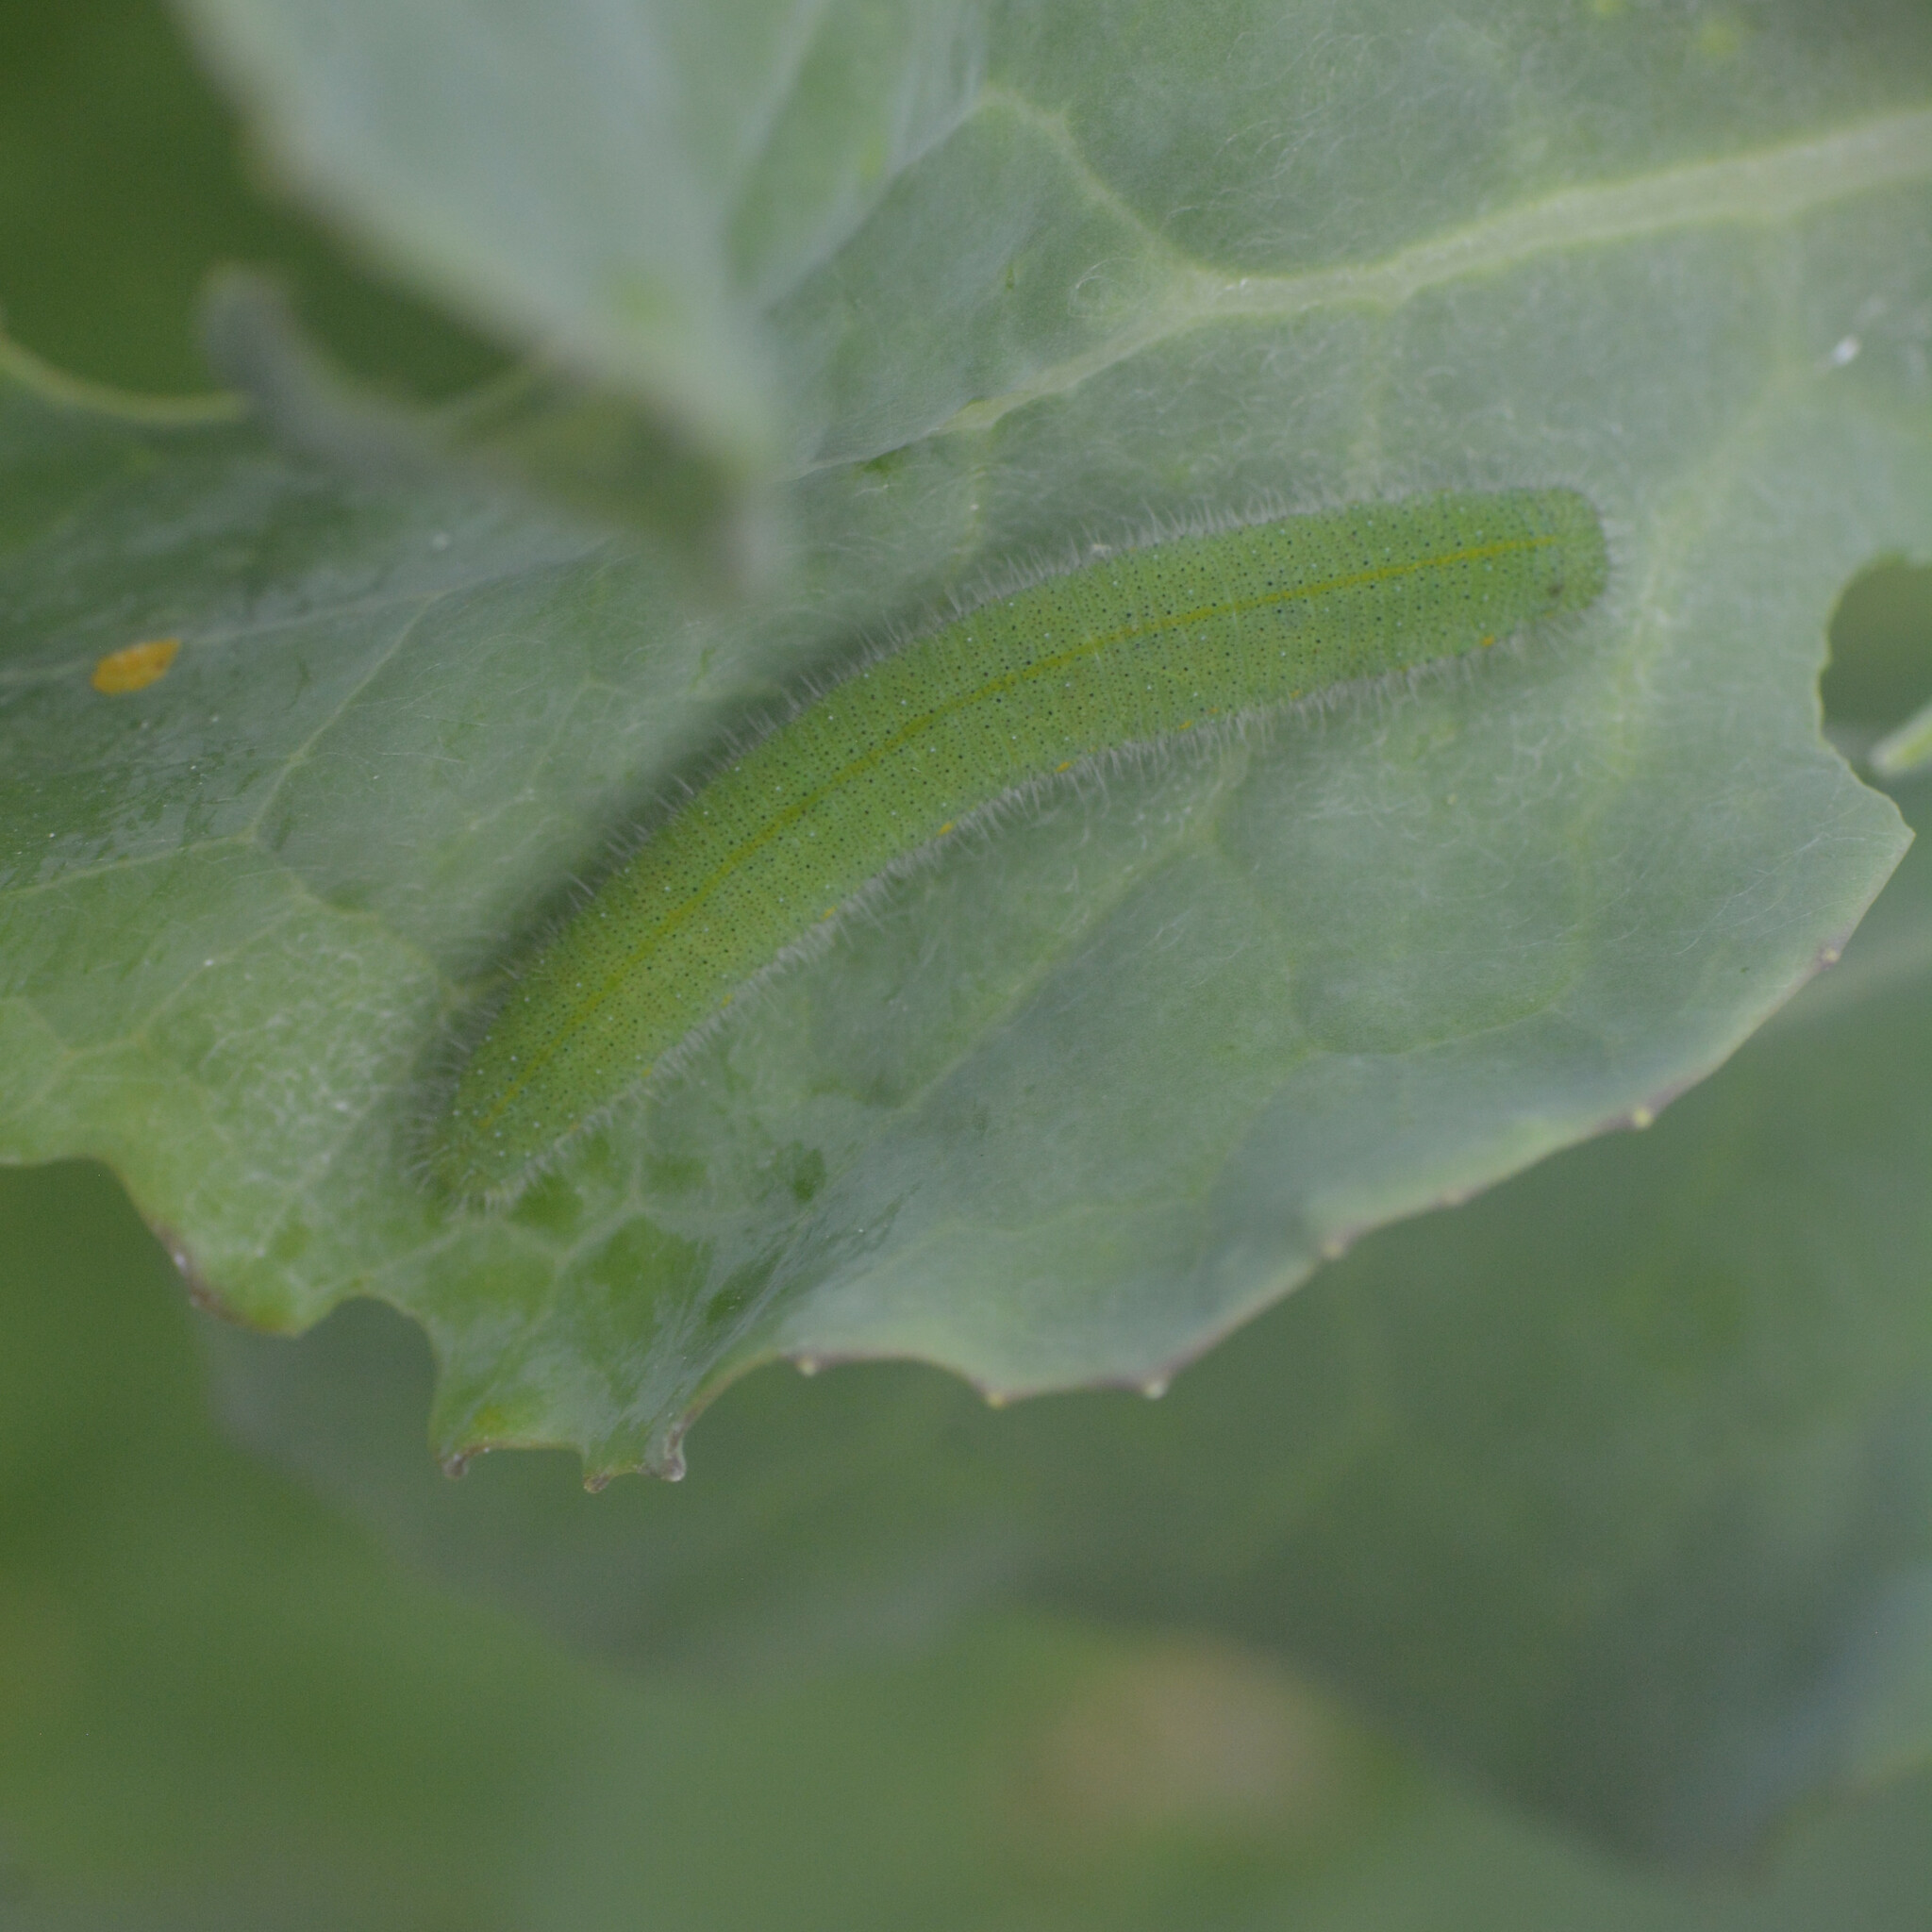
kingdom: Animalia
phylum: Arthropoda
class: Insecta
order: Lepidoptera
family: Pieridae
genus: Pieris
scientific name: Pieris rapae
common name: Small white
